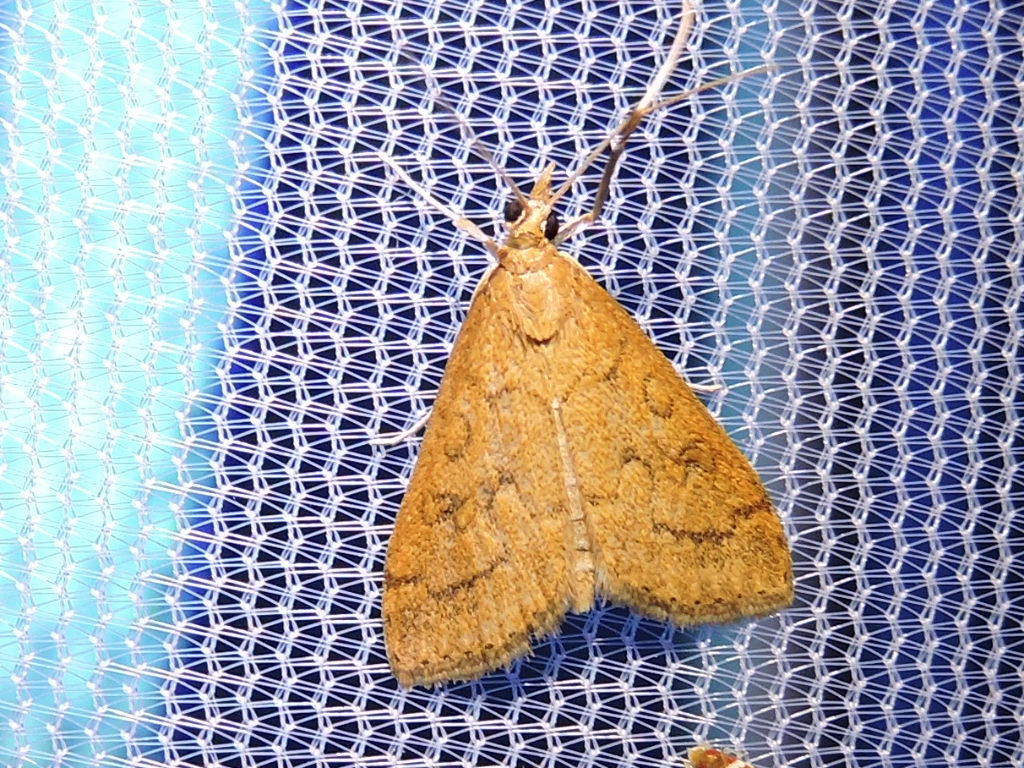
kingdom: Animalia
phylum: Arthropoda
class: Insecta
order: Lepidoptera
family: Crambidae
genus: Udea
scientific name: Udea rubigalis
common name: Celery leaftier moth
